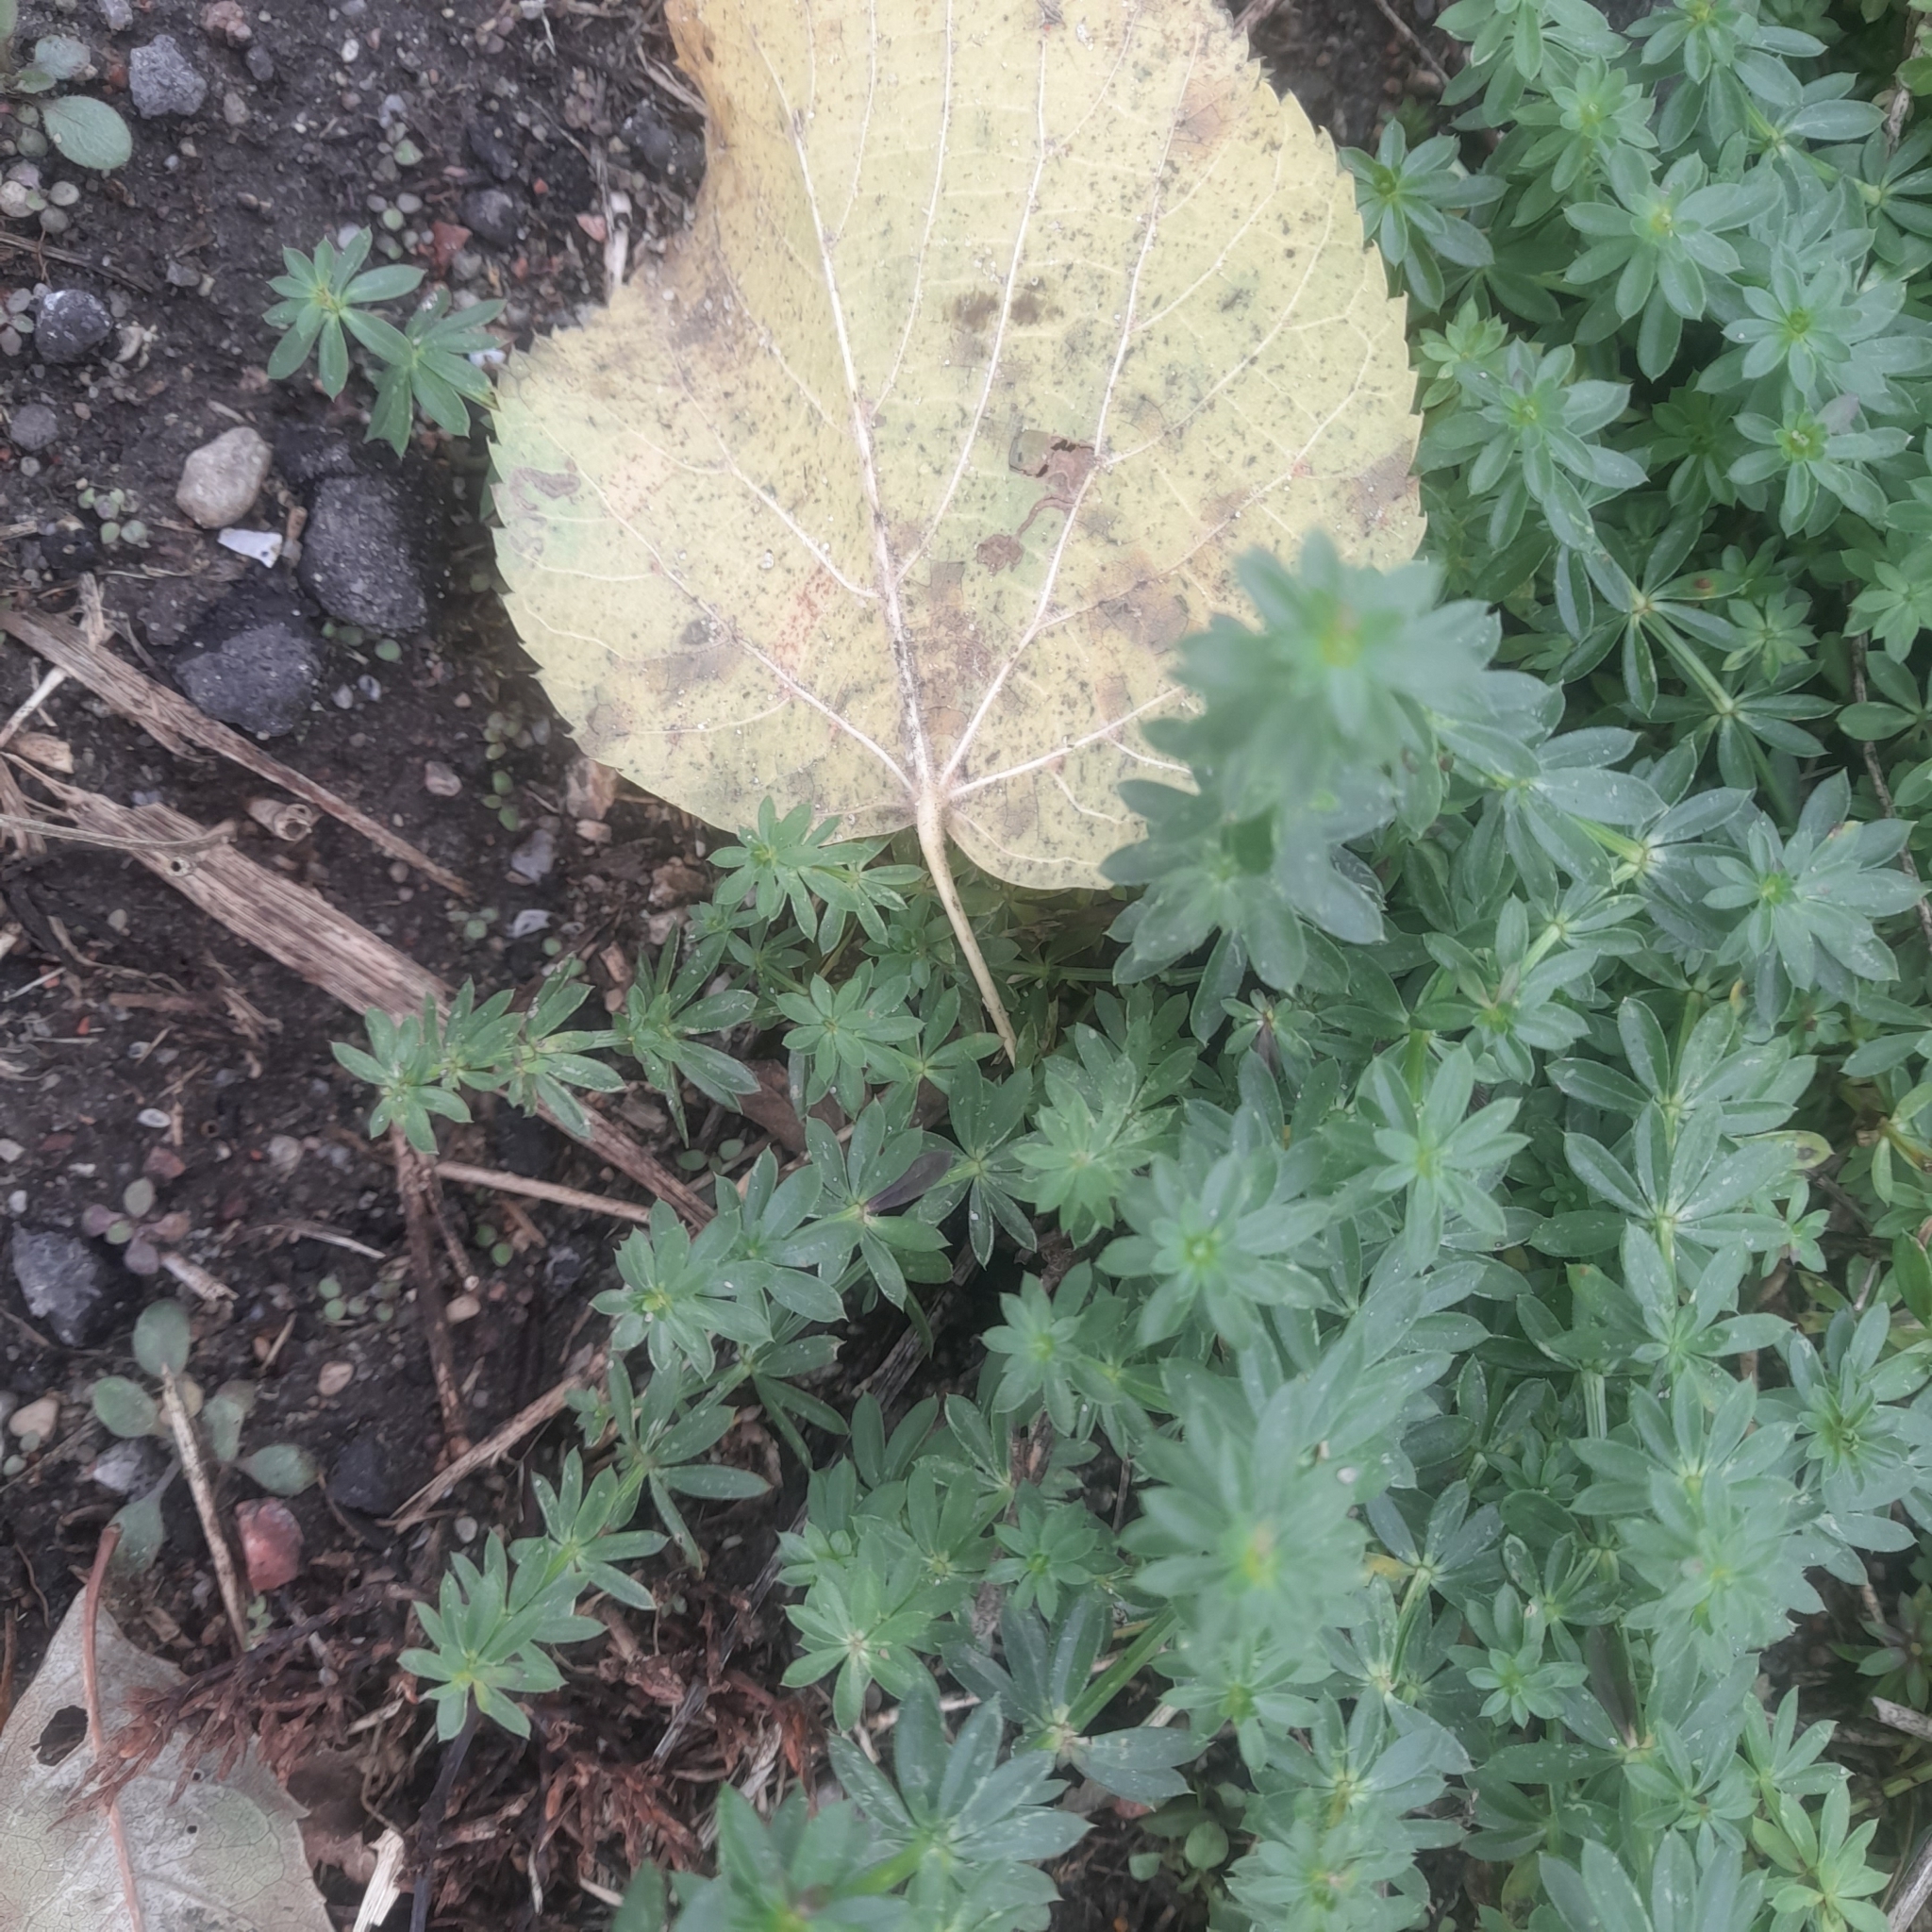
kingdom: Plantae
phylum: Tracheophyta
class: Magnoliopsida
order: Gentianales
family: Rubiaceae
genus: Galium
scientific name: Galium mollugo
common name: Hedge bedstraw
